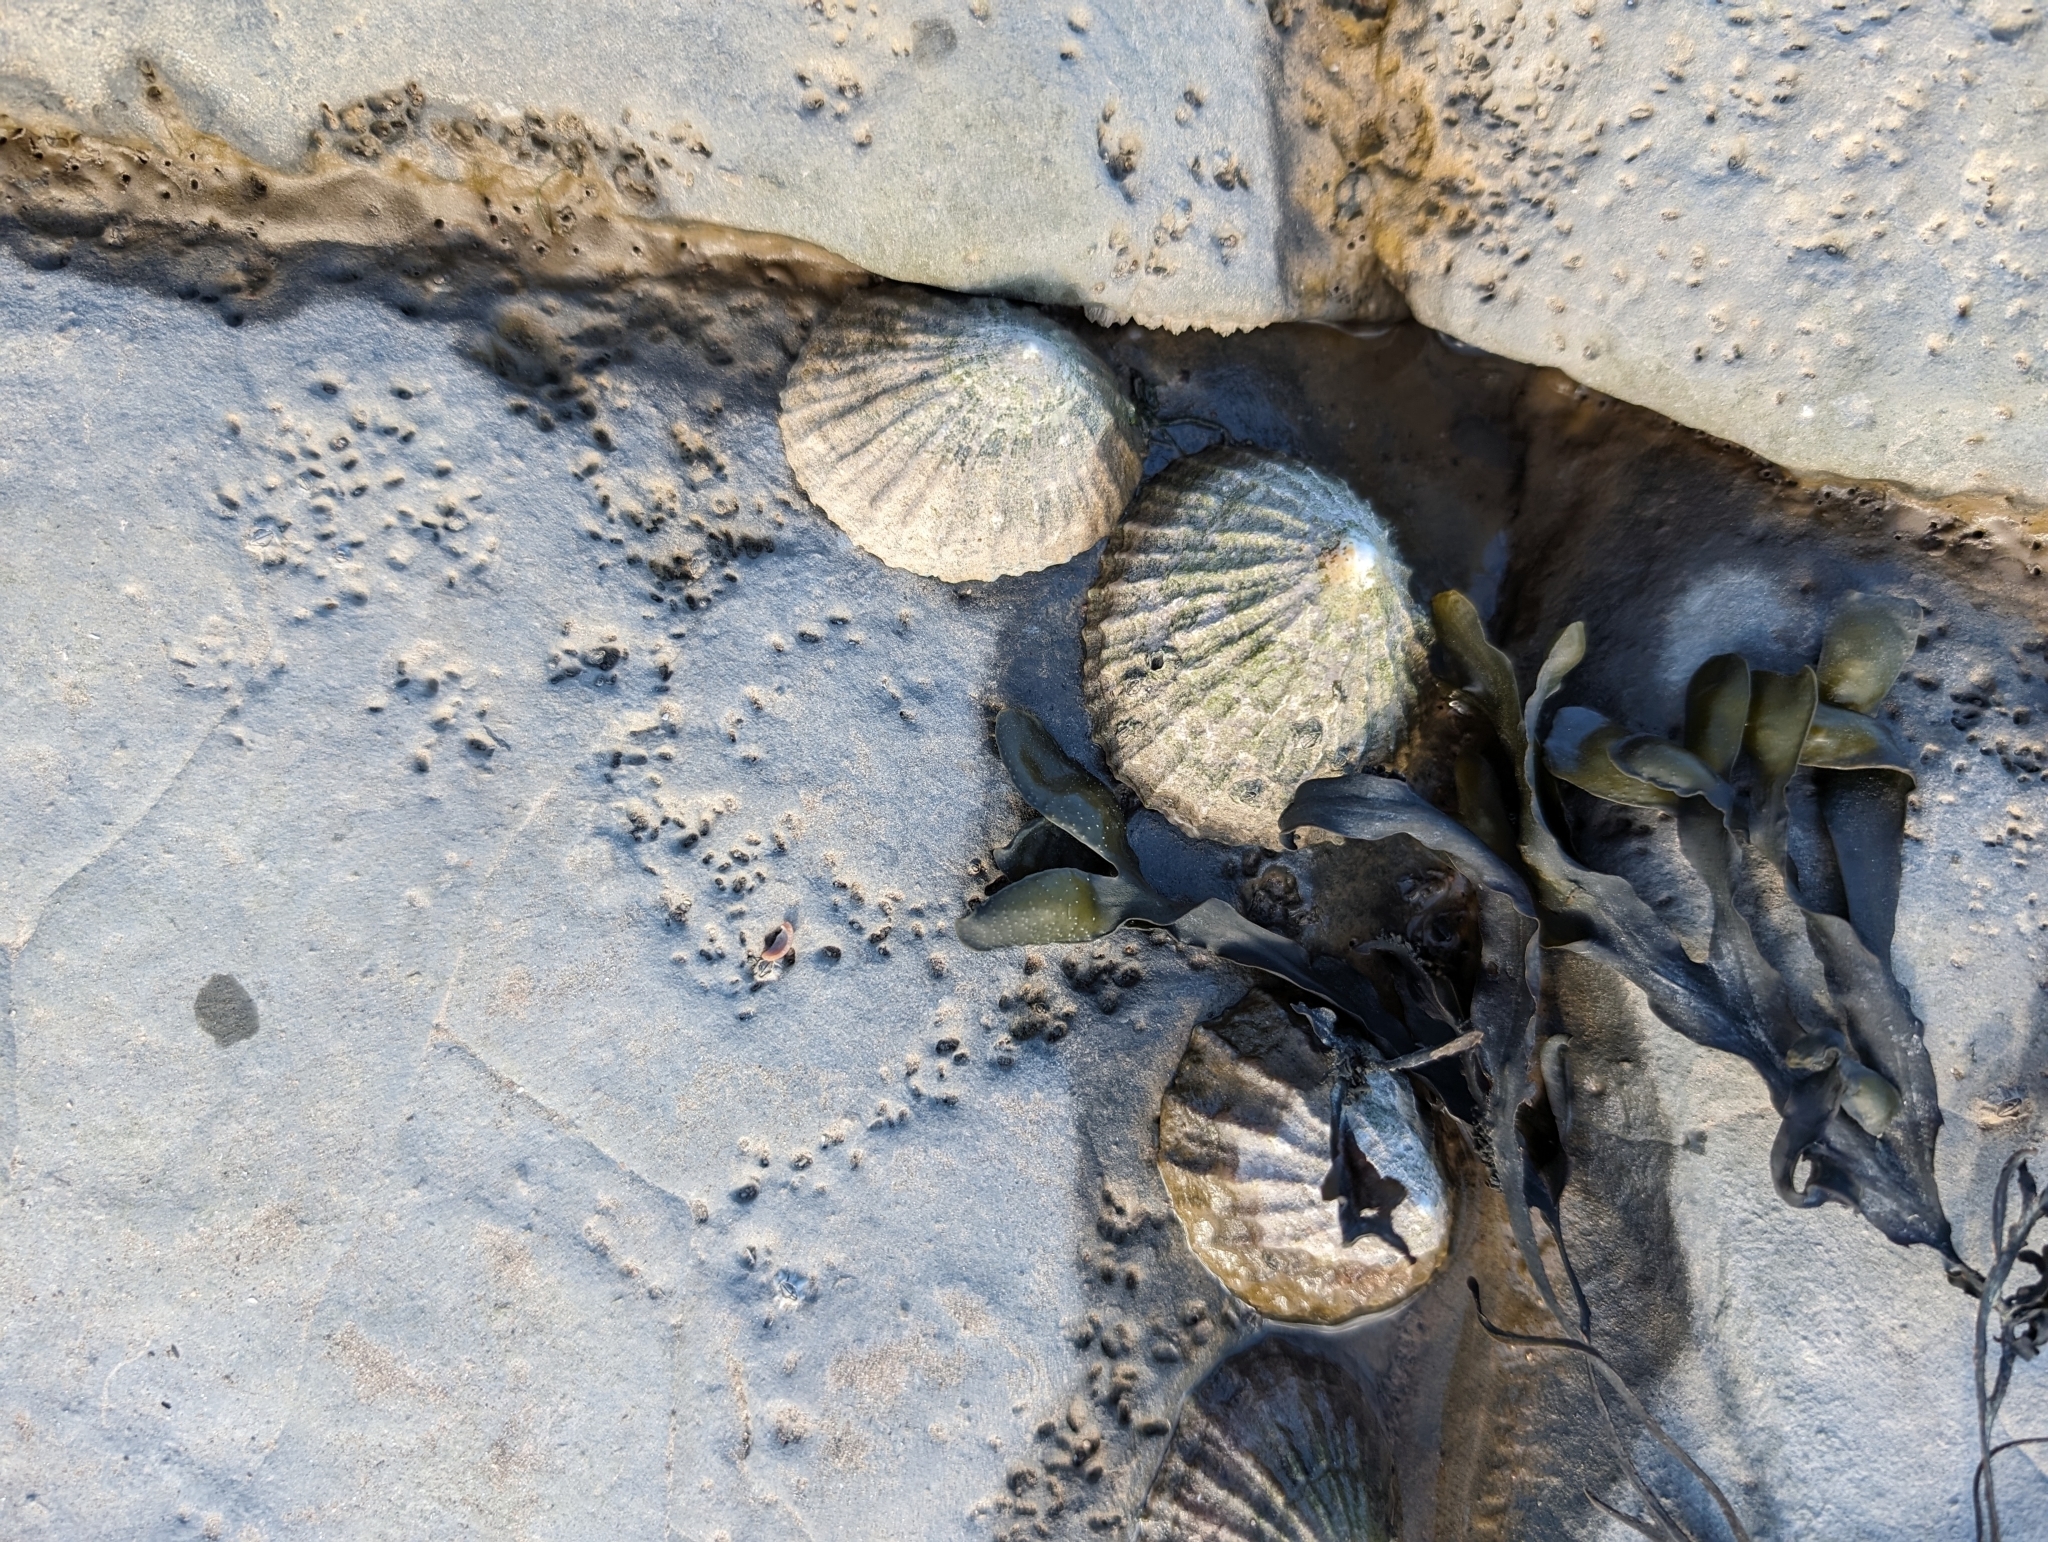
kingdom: Animalia
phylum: Mollusca
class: Gastropoda
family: Patellidae
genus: Patella
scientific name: Patella vulgata
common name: Common limpet
